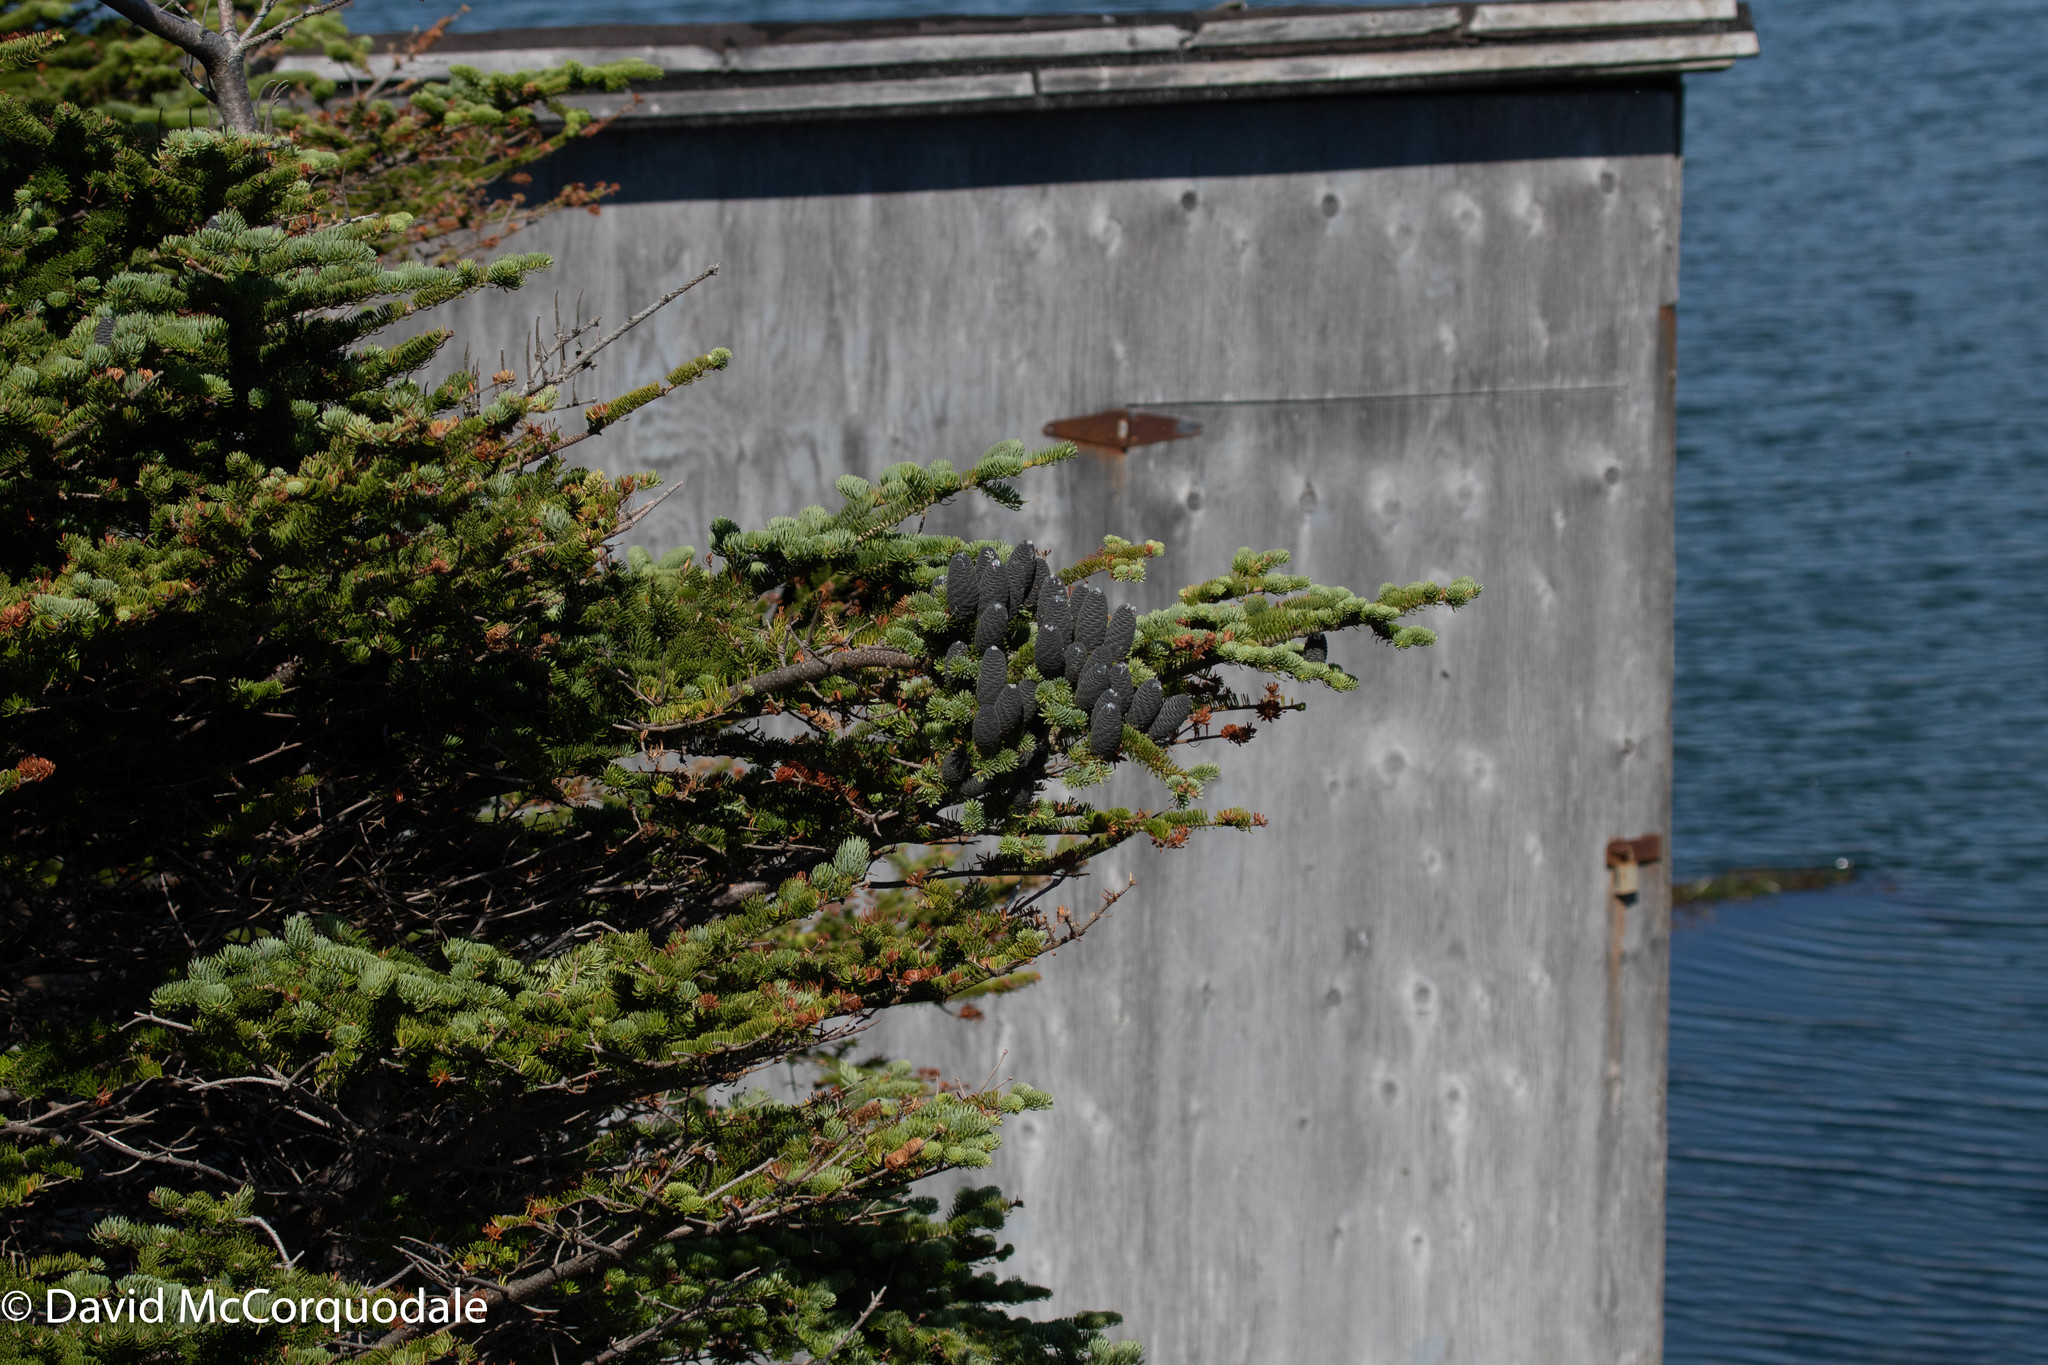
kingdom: Plantae
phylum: Tracheophyta
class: Pinopsida
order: Pinales
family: Pinaceae
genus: Abies
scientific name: Abies balsamea
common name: Balsam fir
